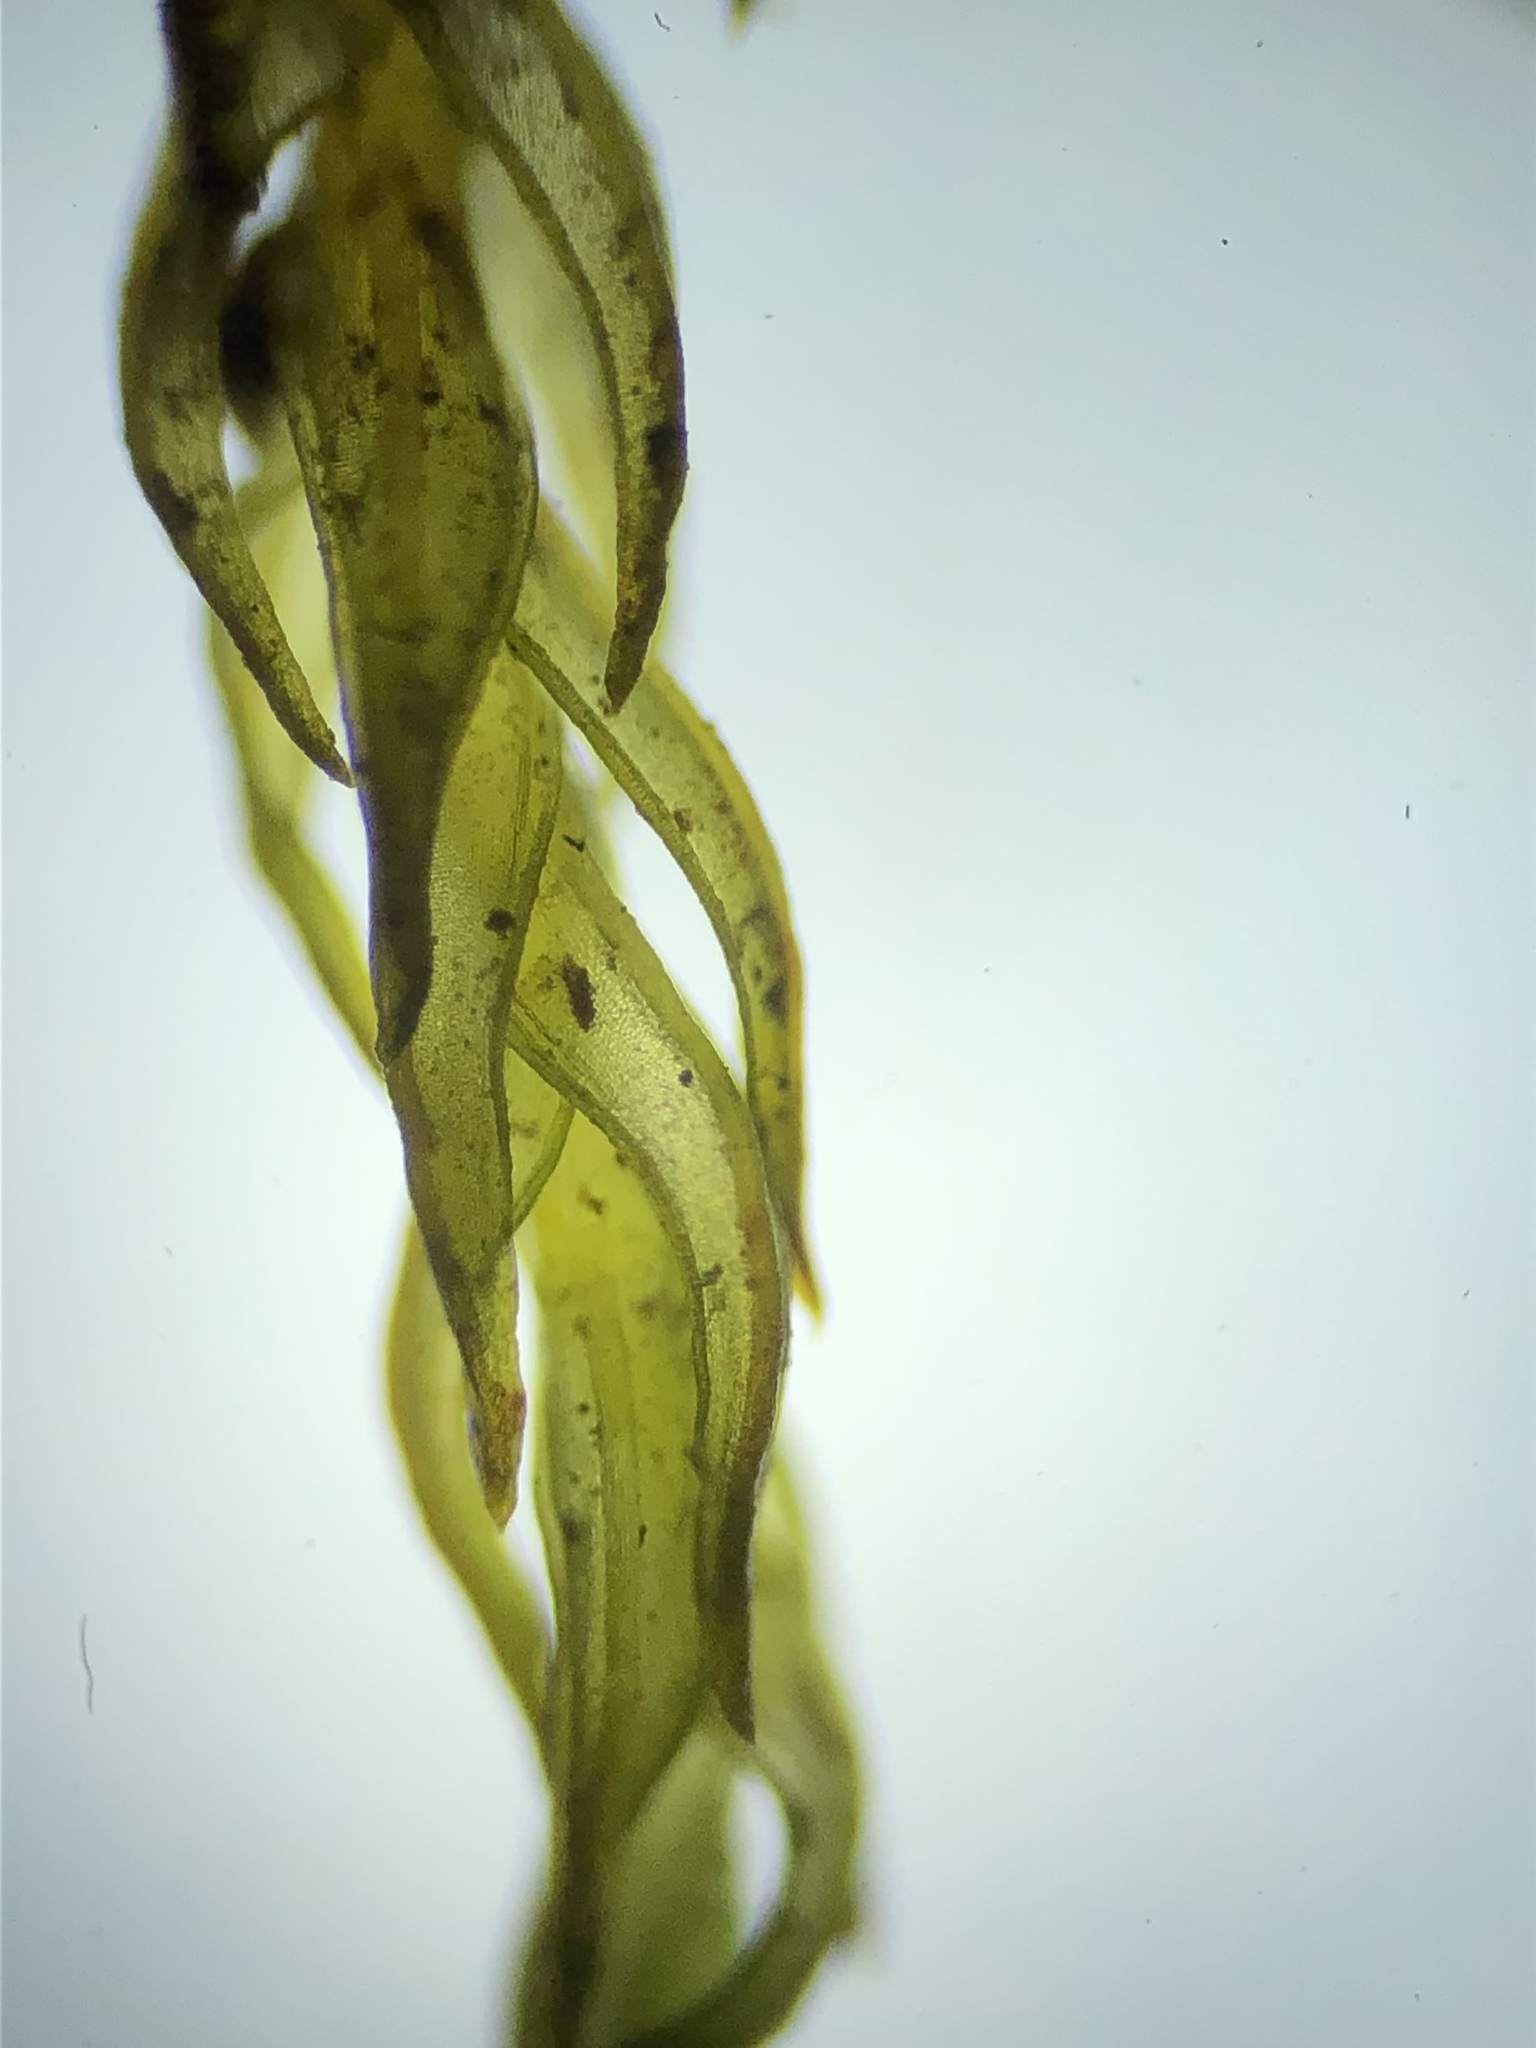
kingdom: Plantae
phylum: Bryophyta
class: Bryopsida
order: Pottiales
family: Pottiaceae
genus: Vinealobryum
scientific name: Vinealobryum nicholsonii
